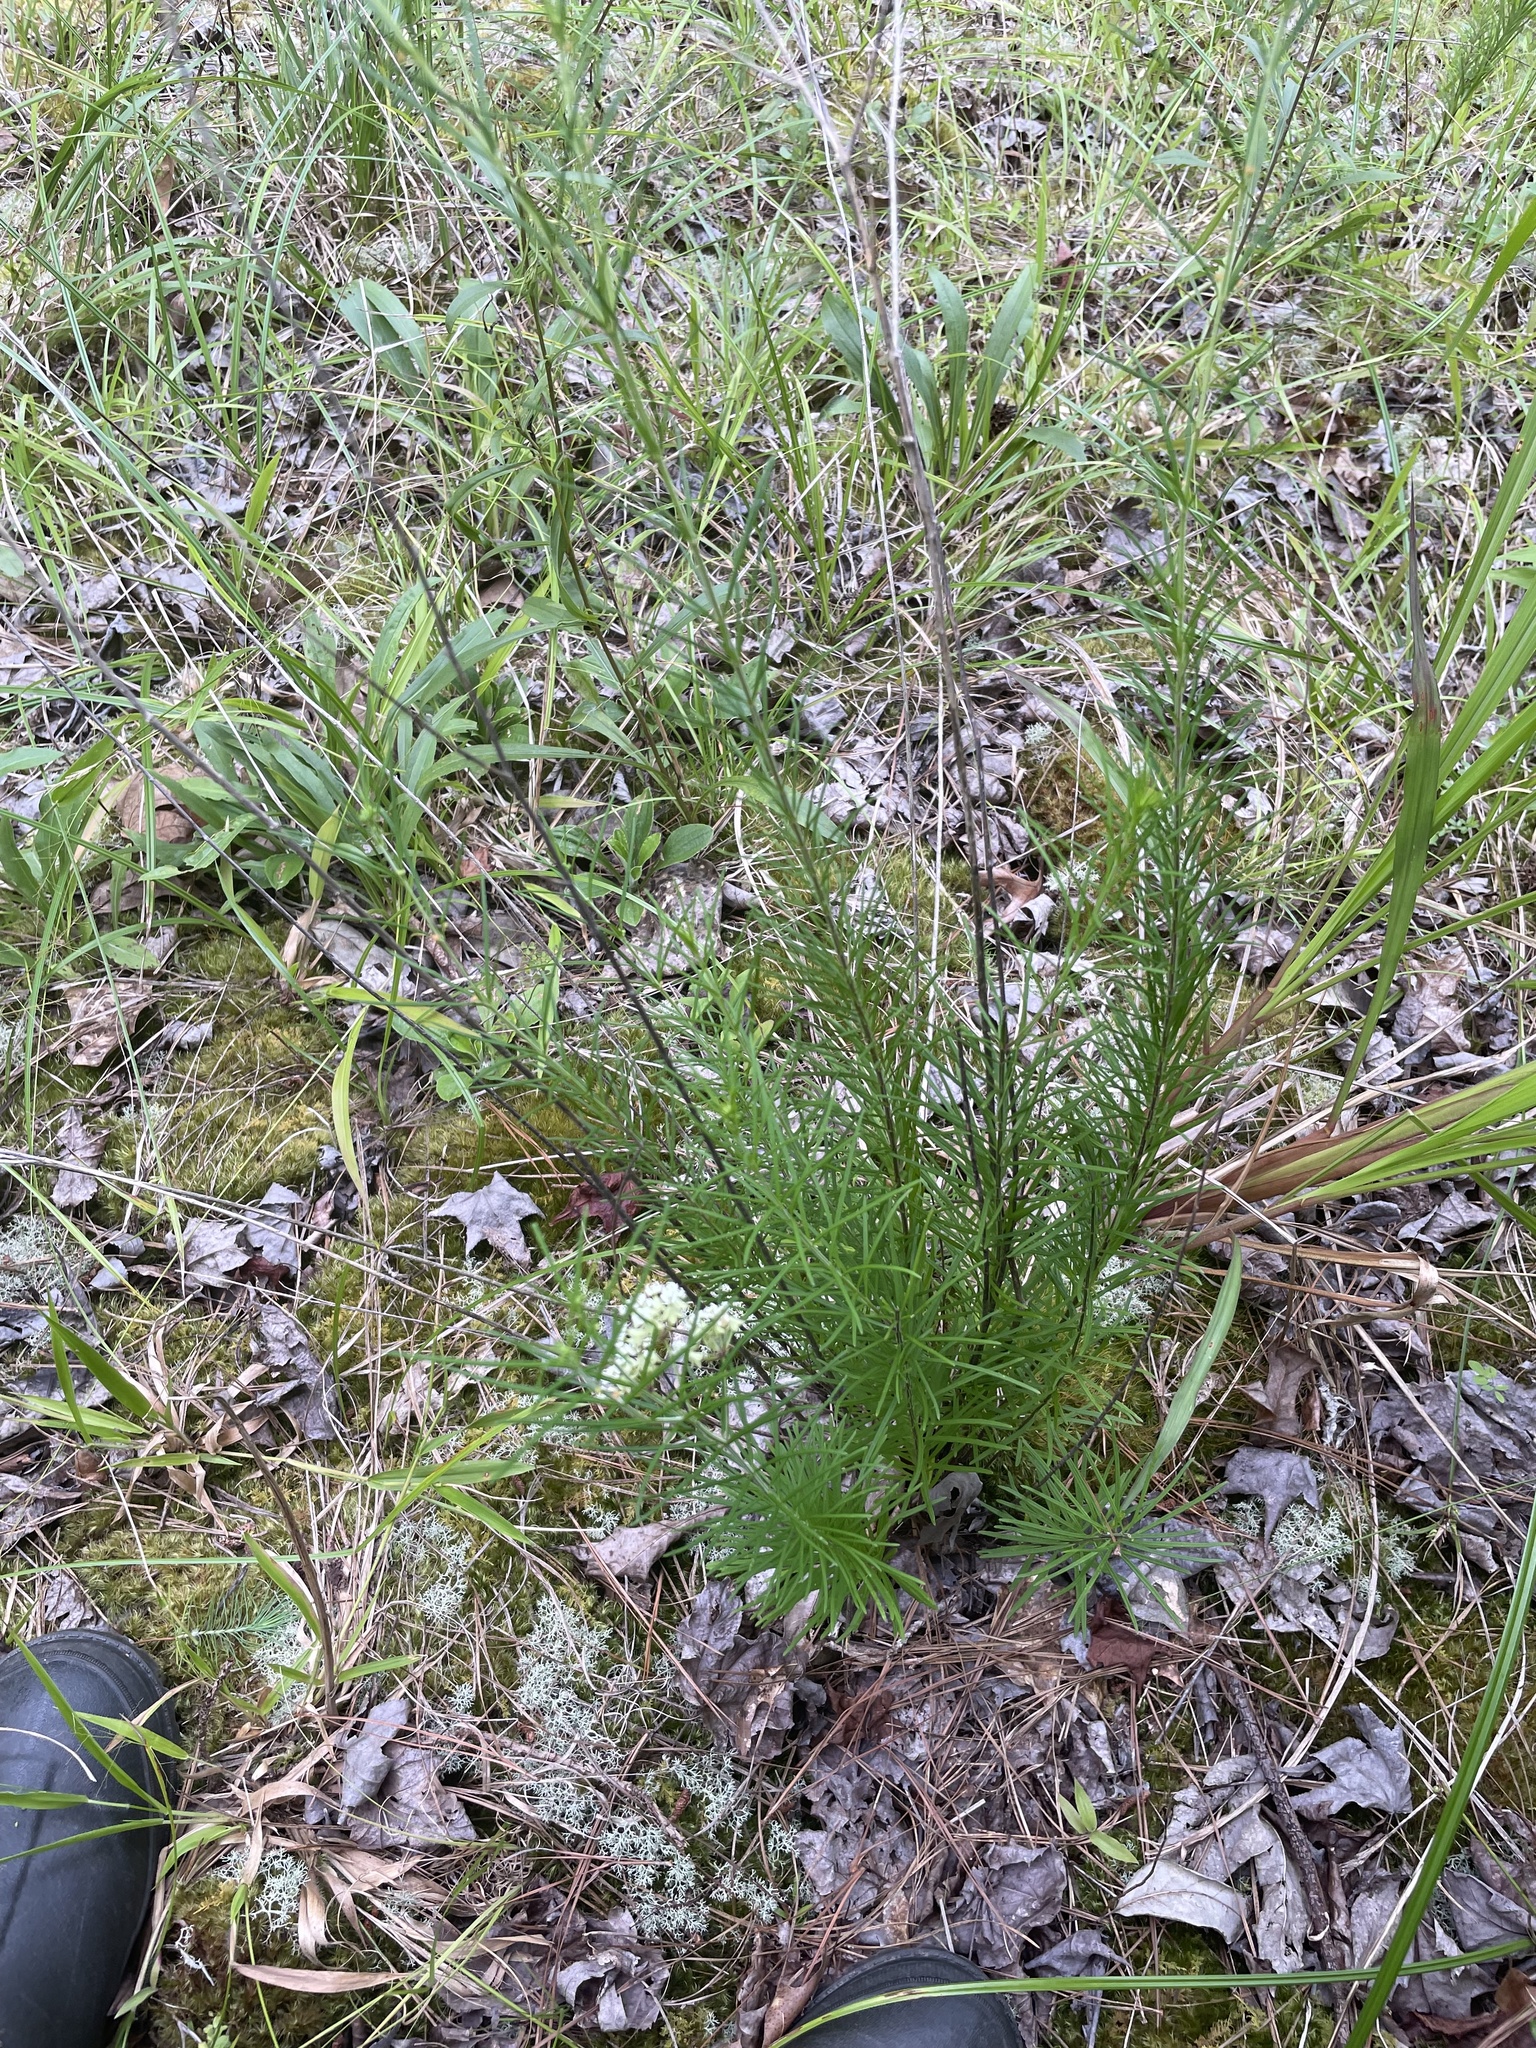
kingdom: Plantae
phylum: Tracheophyta
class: Magnoliopsida
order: Gentianales
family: Apocynaceae
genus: Asclepias
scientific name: Asclepias verticillata
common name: Eastern whorled milkweed
